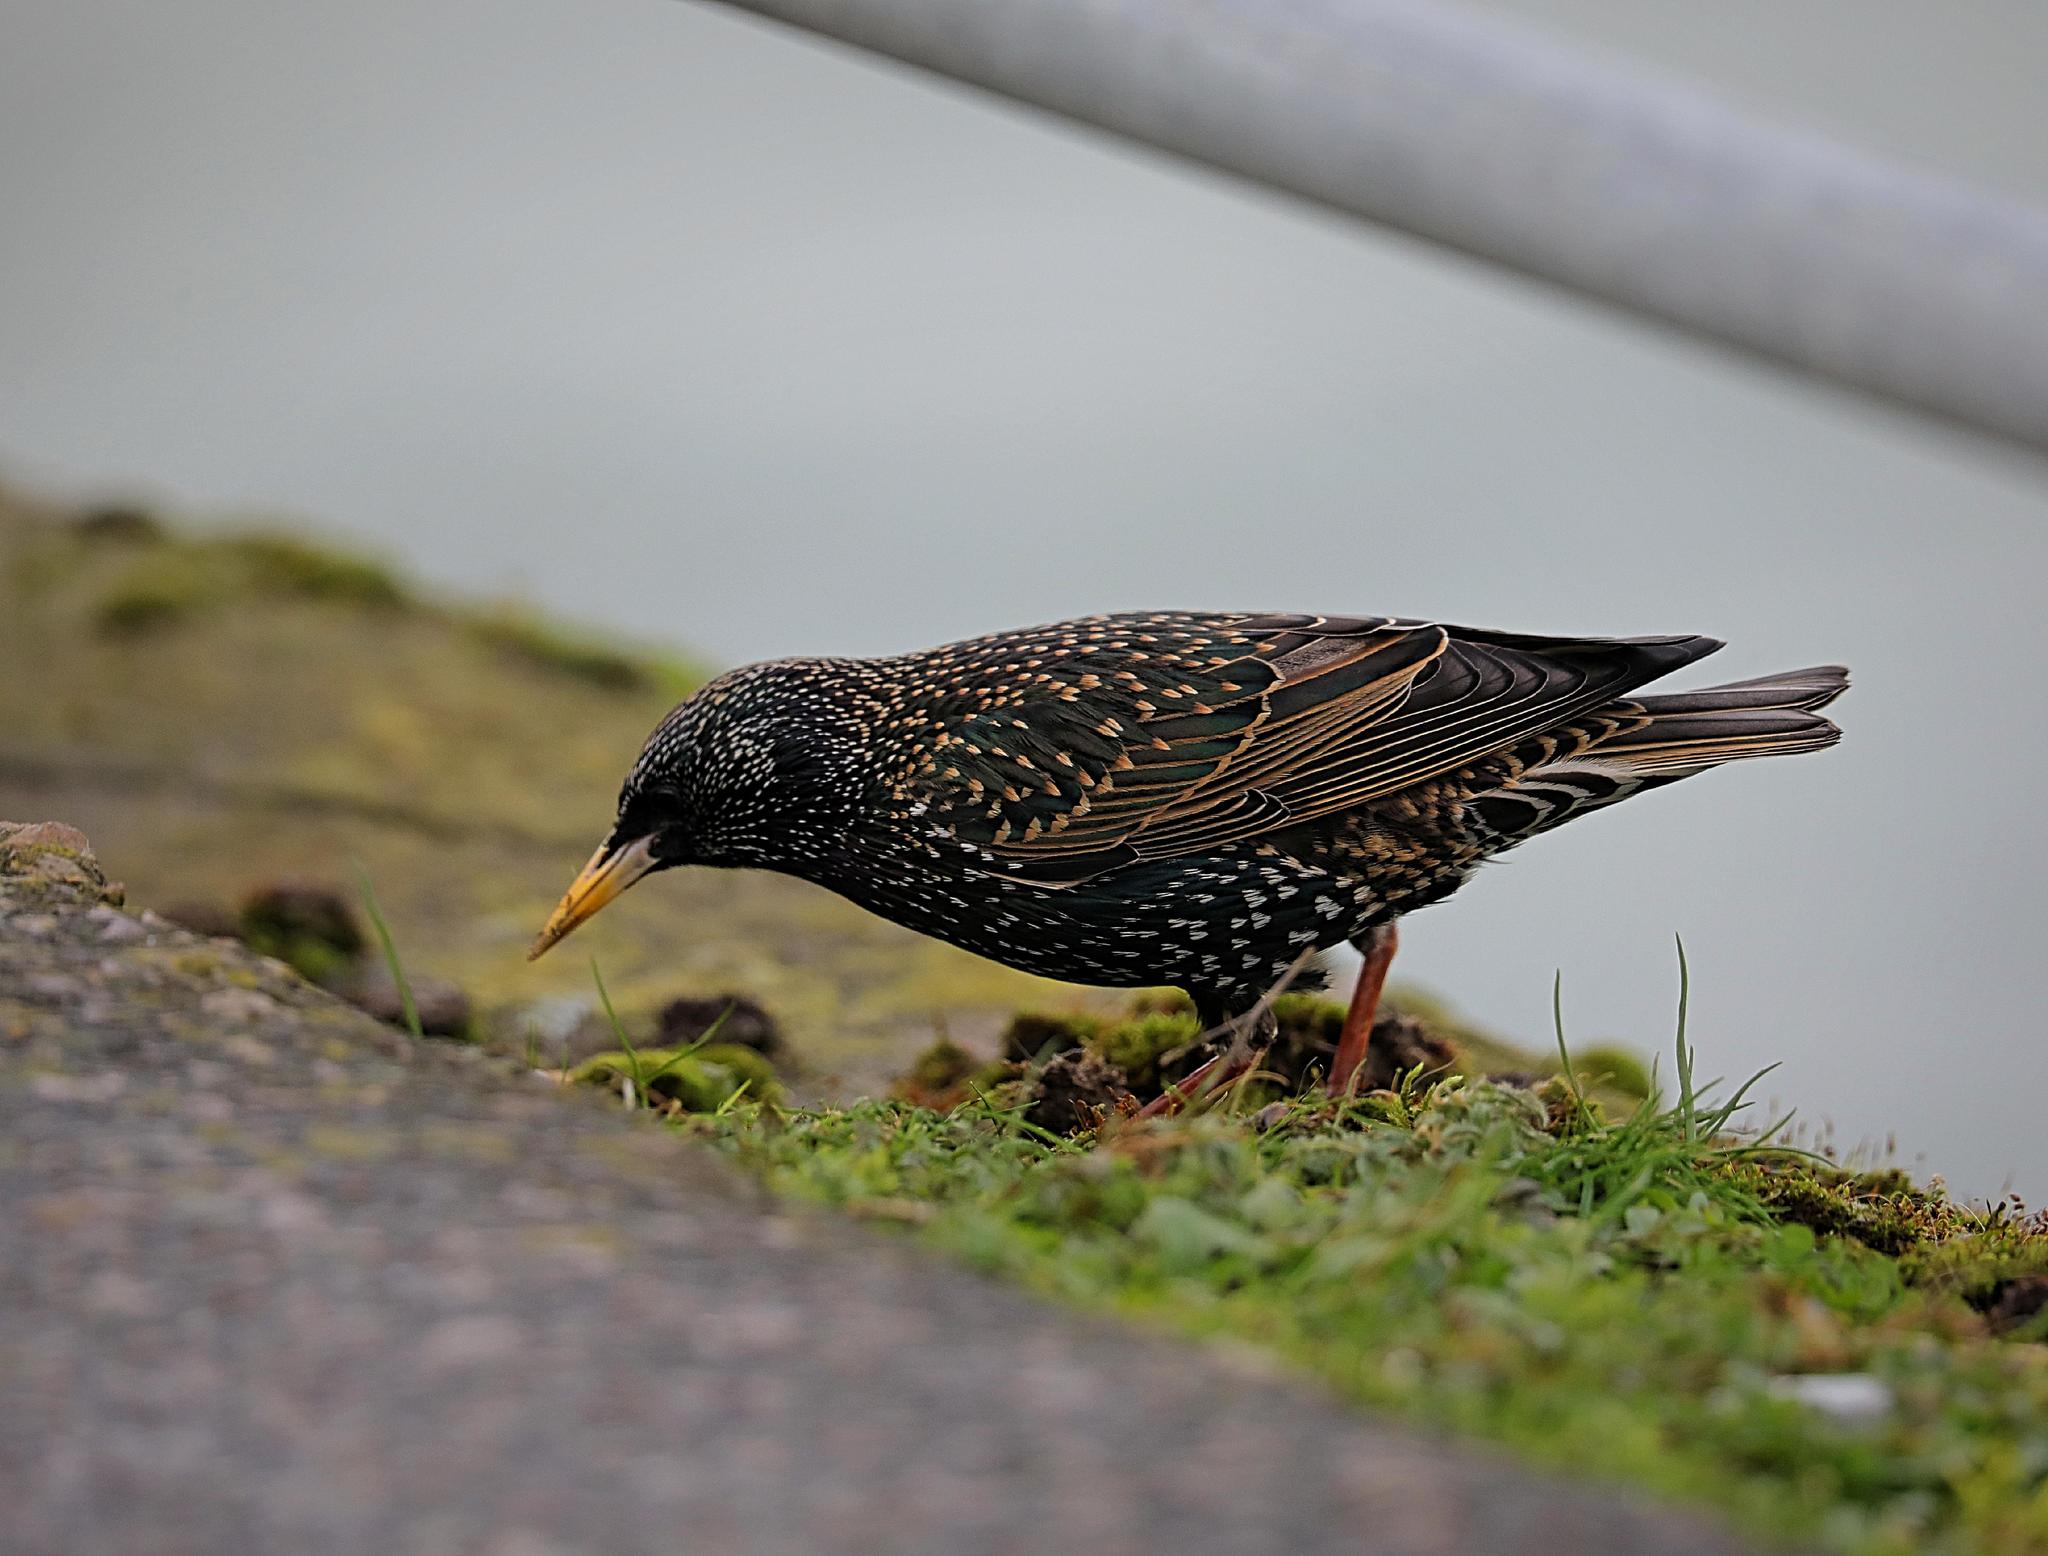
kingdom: Animalia
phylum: Chordata
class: Aves
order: Passeriformes
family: Sturnidae
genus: Sturnus
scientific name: Sturnus vulgaris
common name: Common starling
